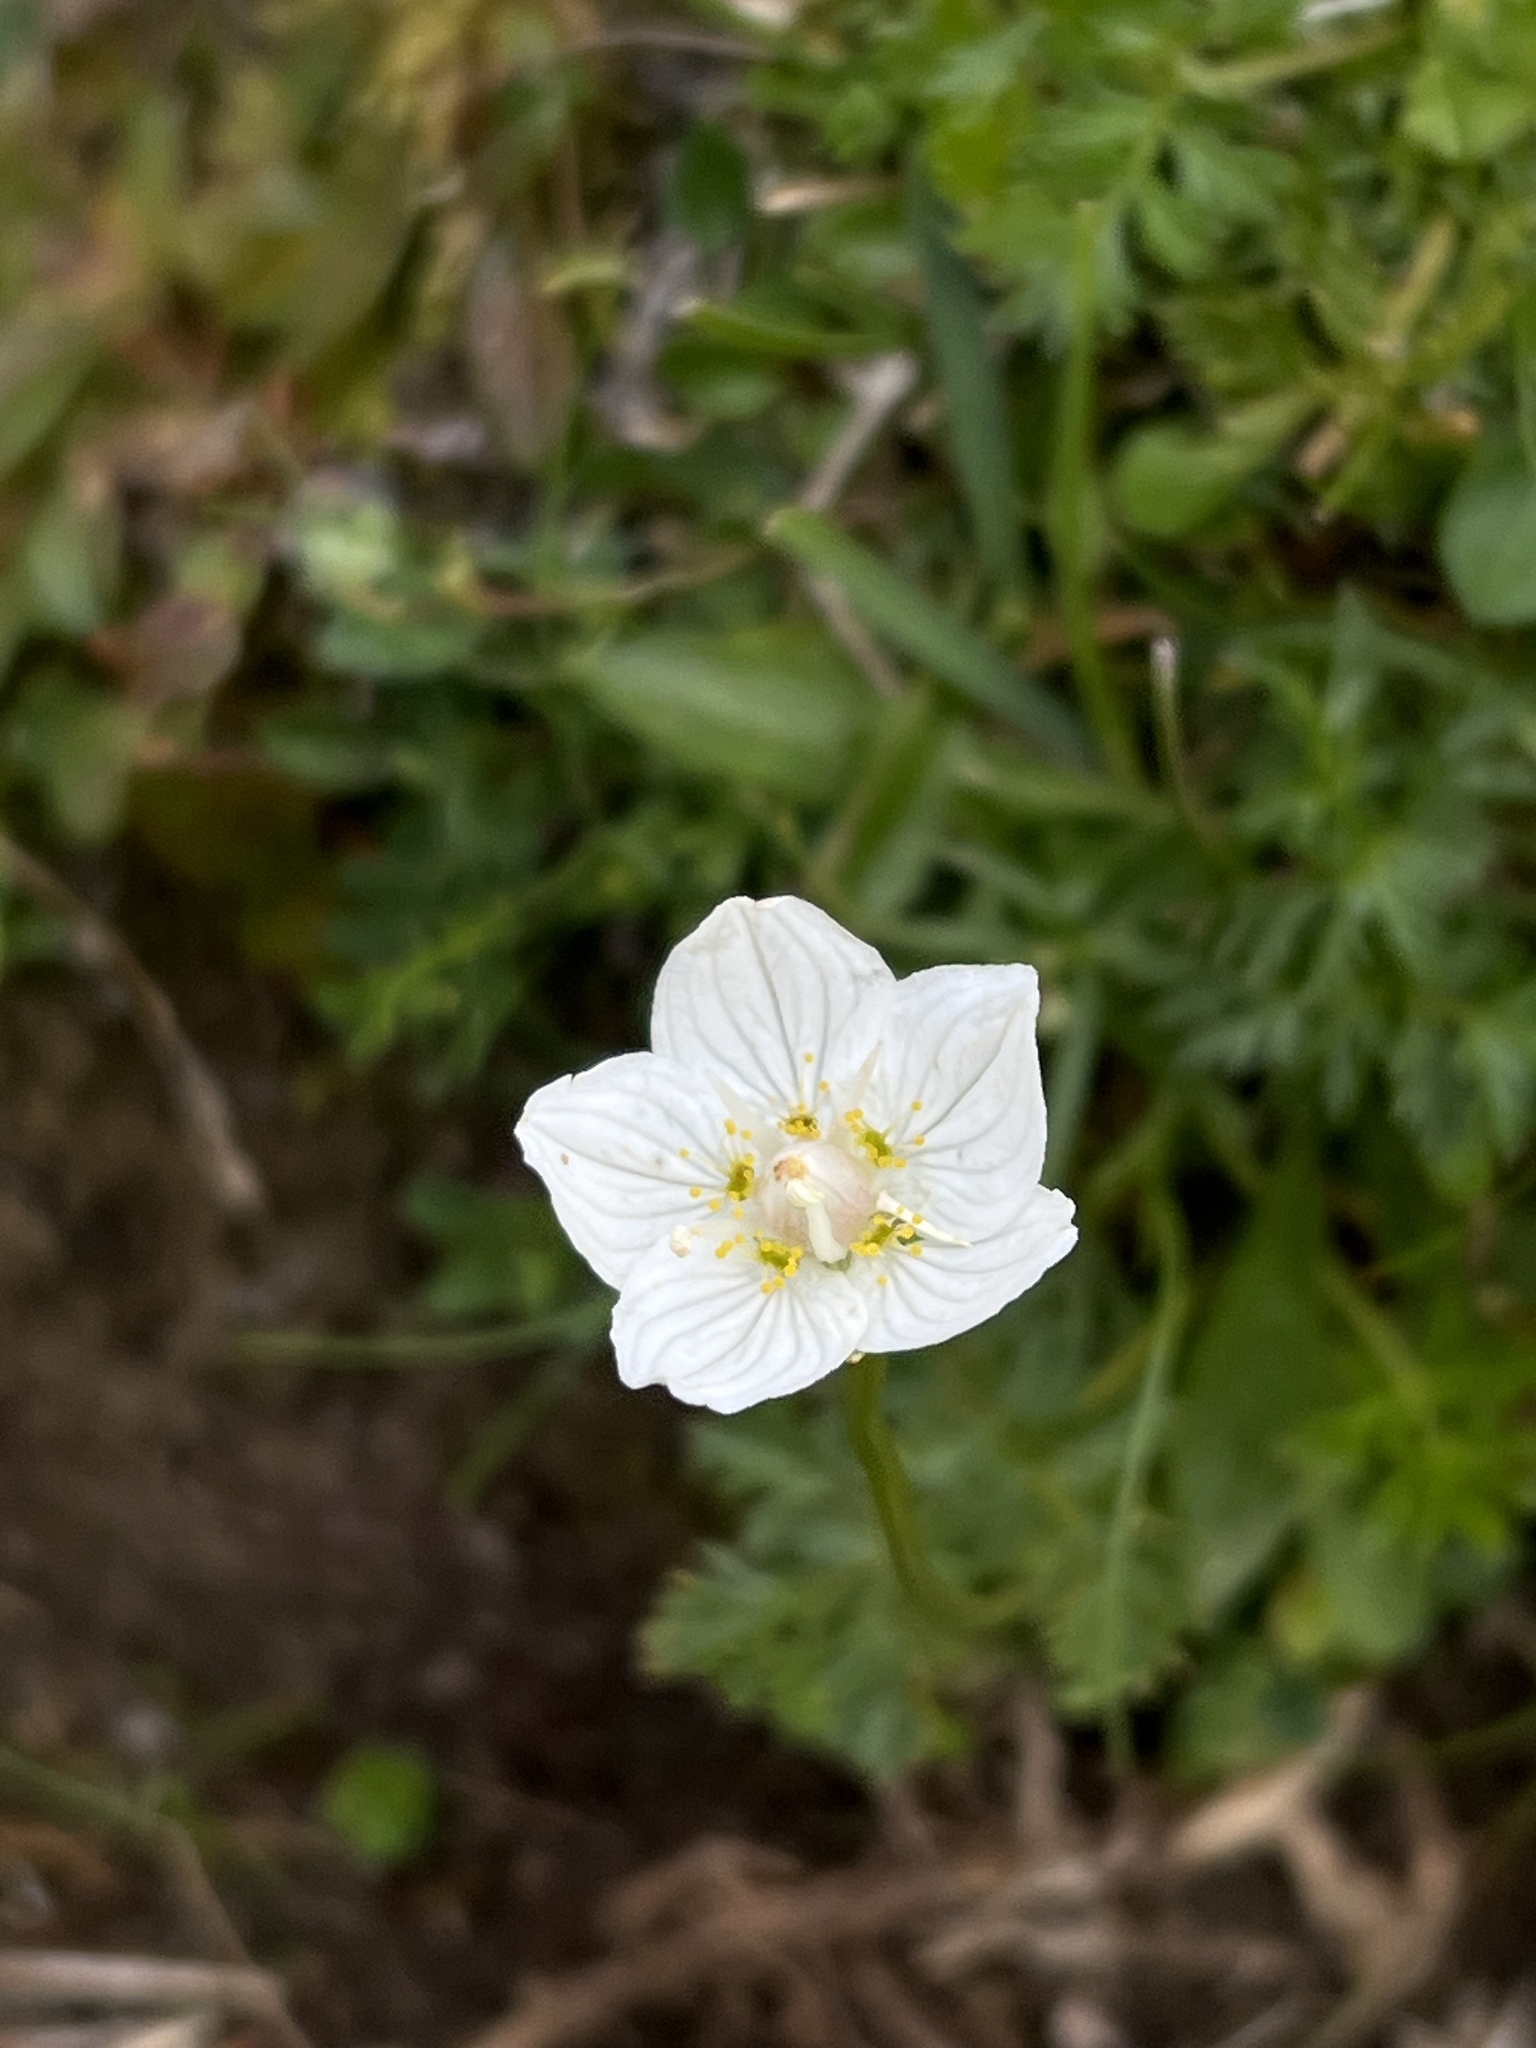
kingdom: Plantae
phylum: Tracheophyta
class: Magnoliopsida
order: Celastrales
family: Parnassiaceae
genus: Parnassia
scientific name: Parnassia palustris
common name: Grass-of-parnassus
